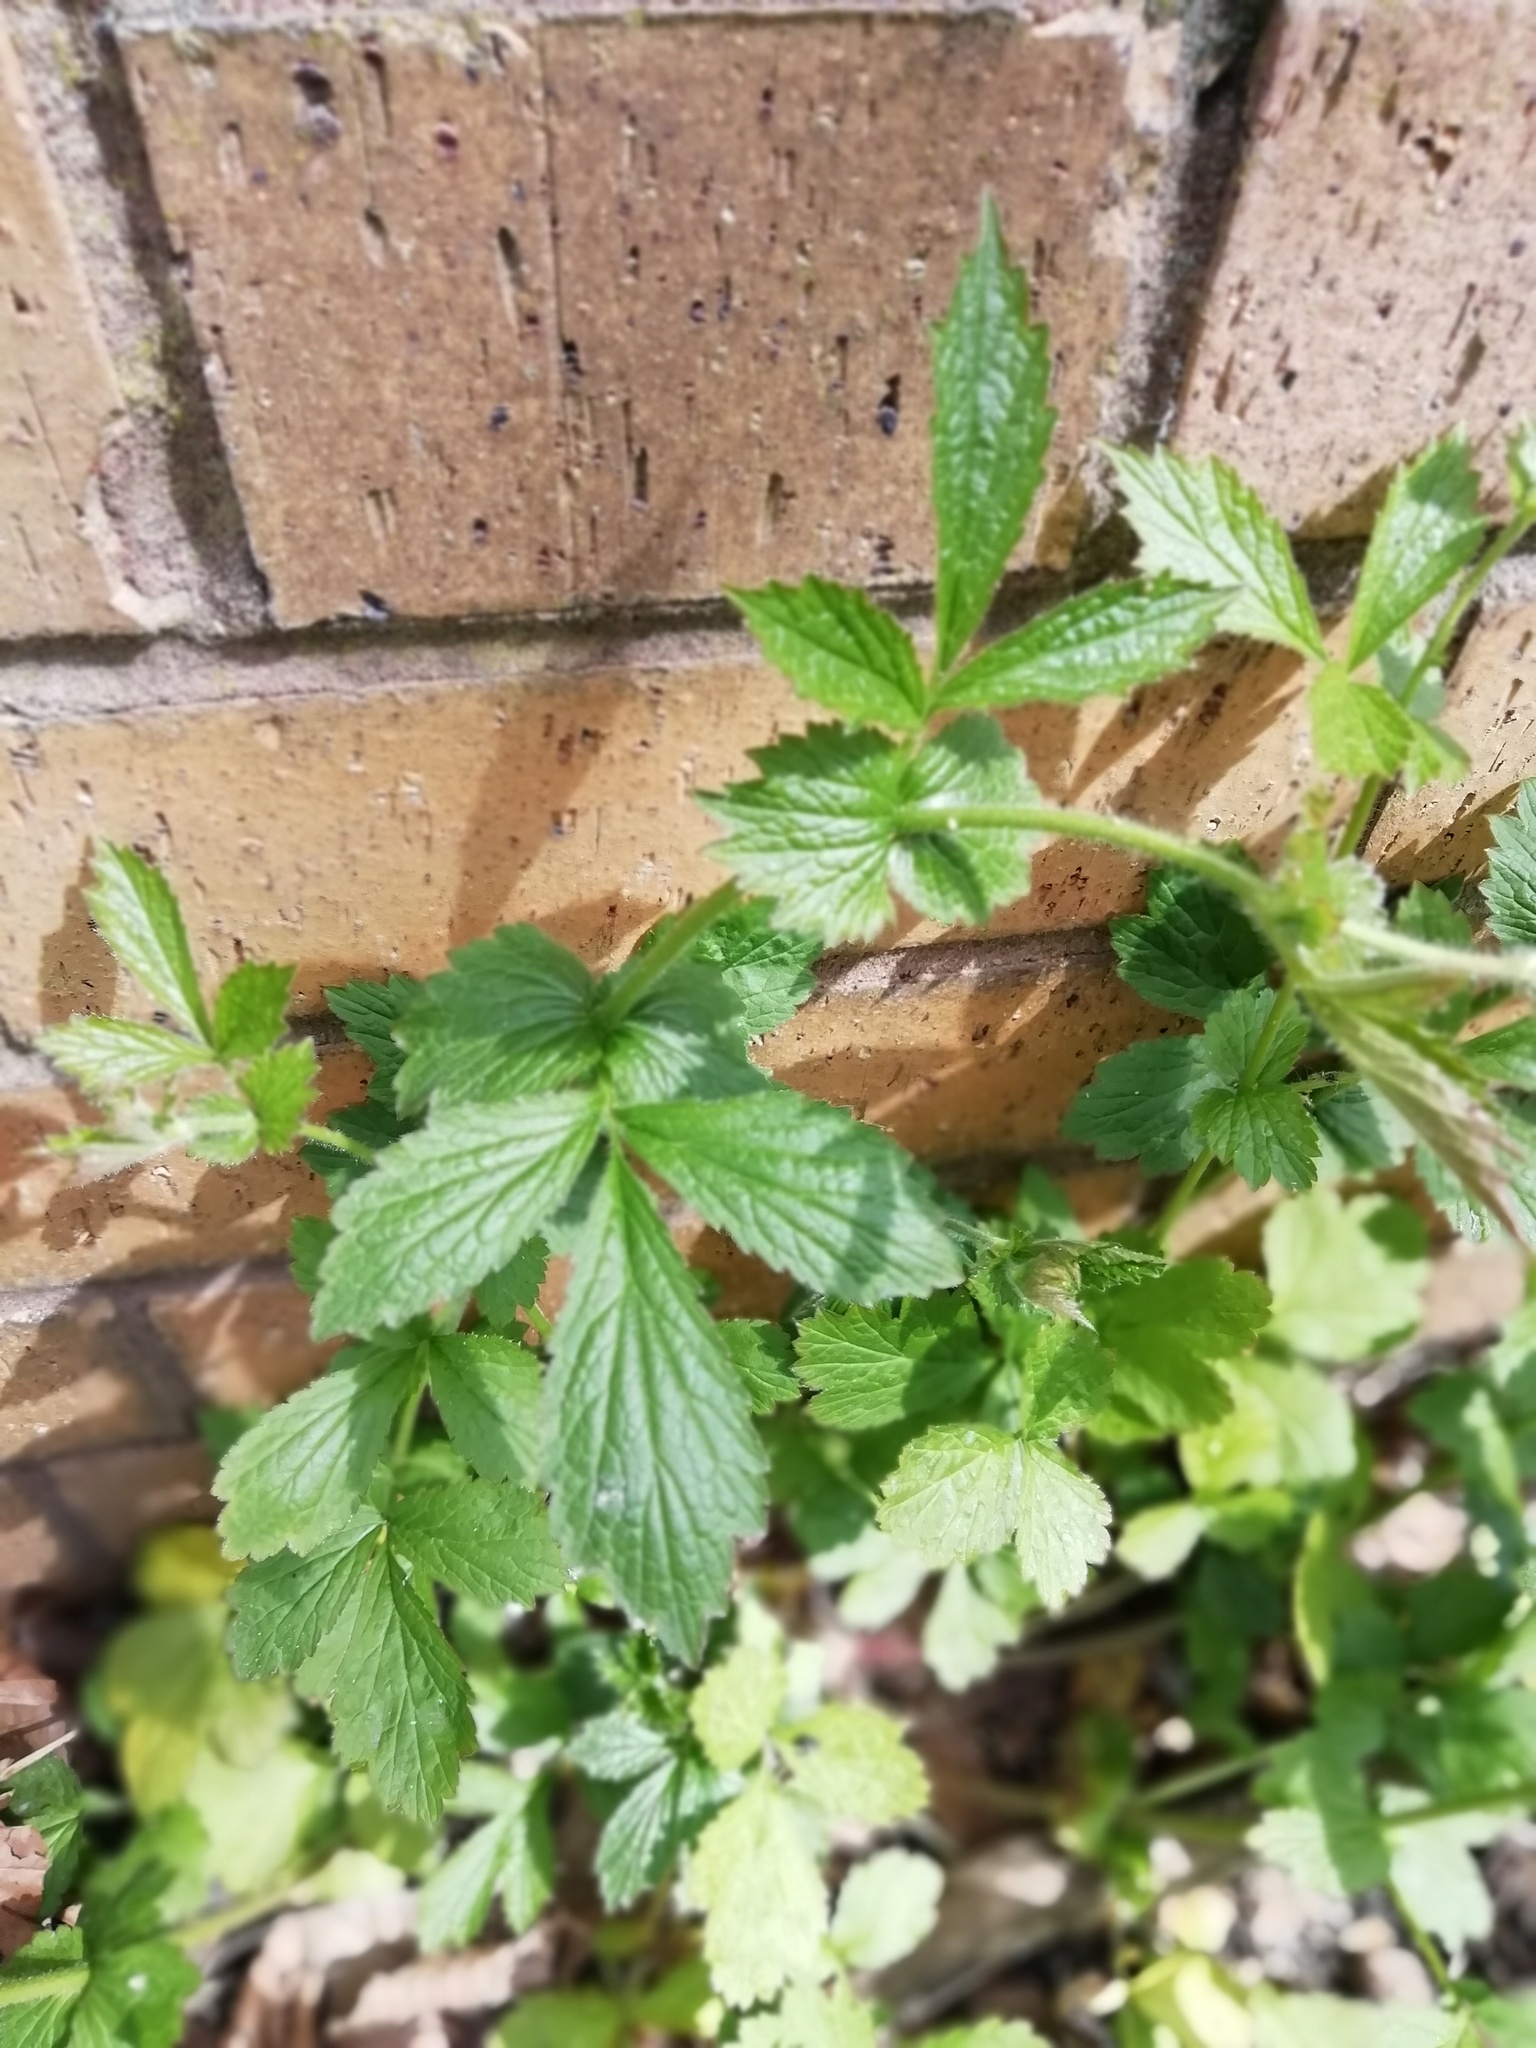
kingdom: Plantae
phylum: Tracheophyta
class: Magnoliopsida
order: Rosales
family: Rosaceae
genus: Geum
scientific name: Geum urbanum
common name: Wood avens
